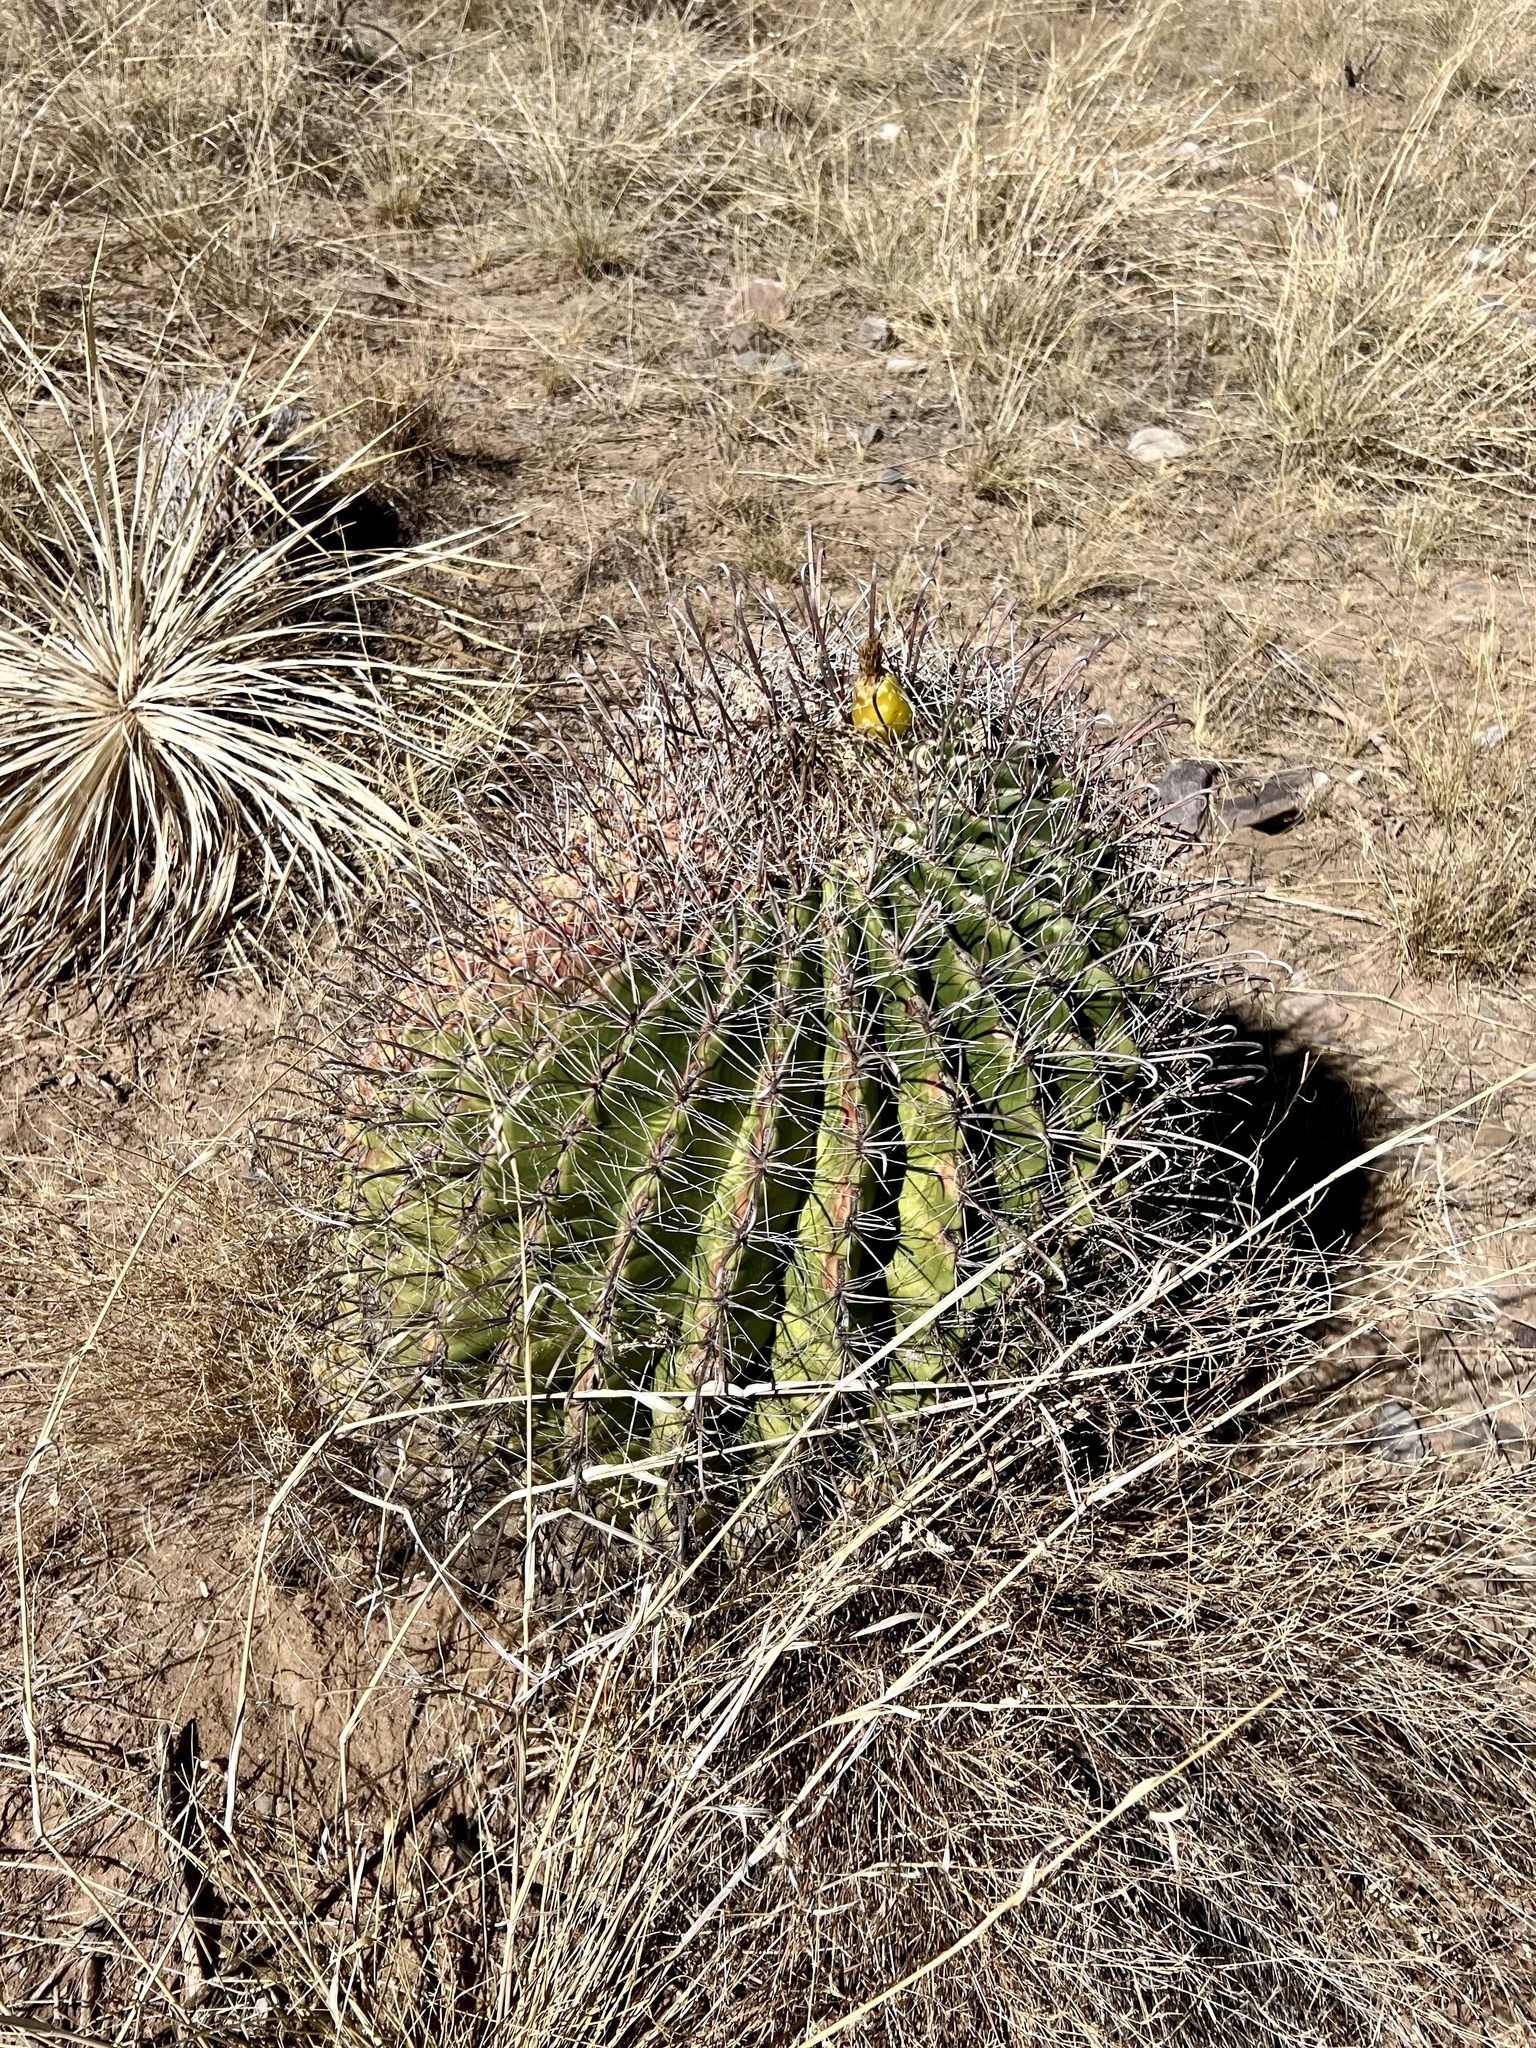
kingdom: Plantae
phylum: Tracheophyta
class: Magnoliopsida
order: Caryophyllales
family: Cactaceae
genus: Ferocactus
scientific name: Ferocactus wislizeni
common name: Candy barrel cactus
